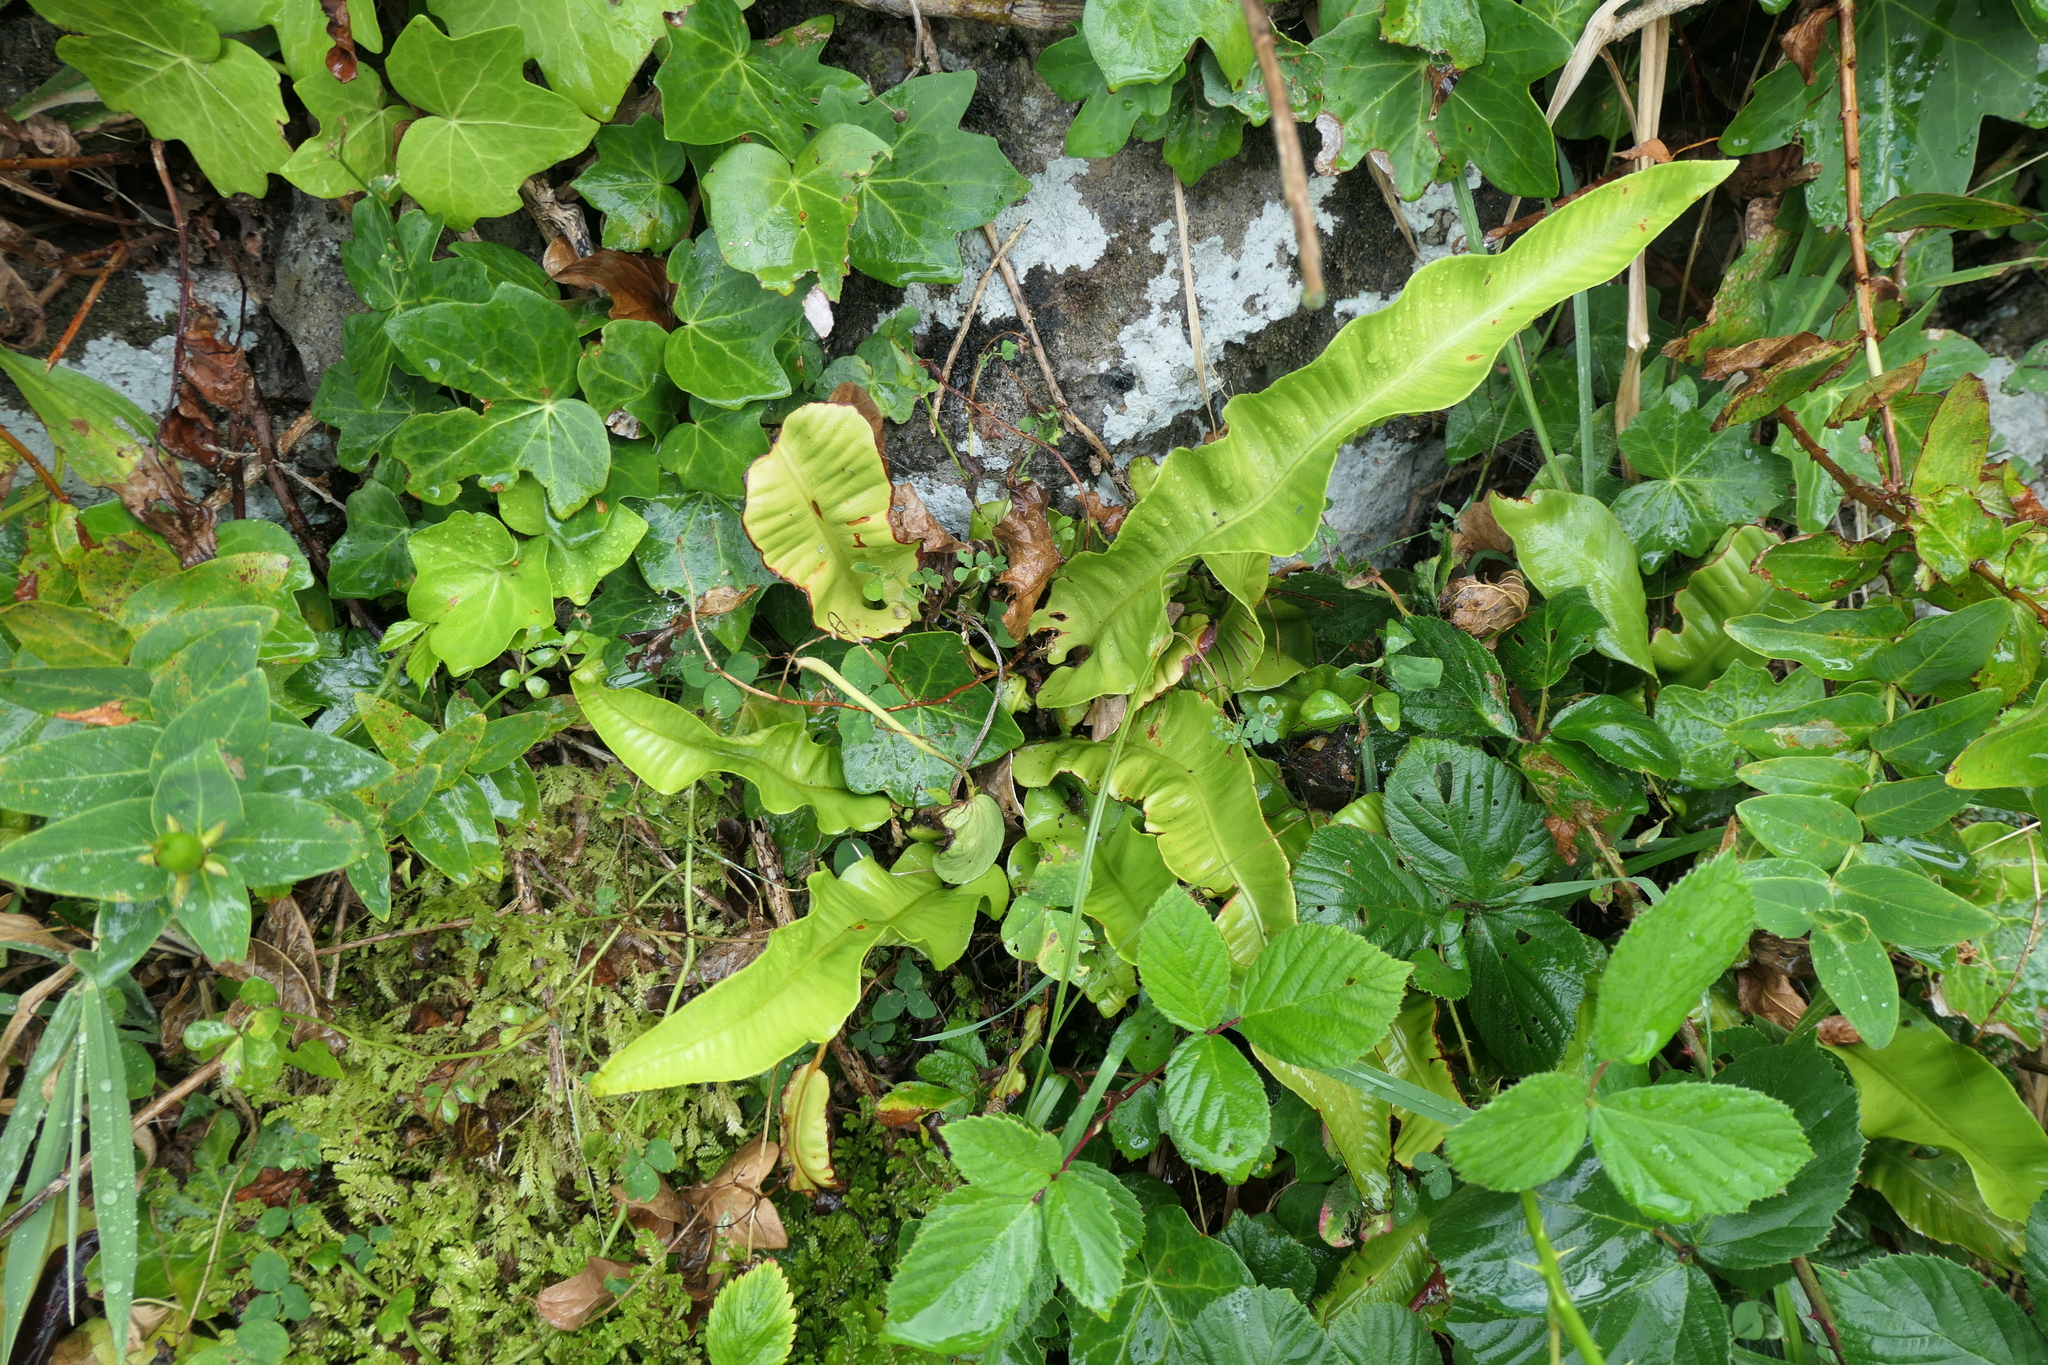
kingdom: Plantae
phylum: Tracheophyta
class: Polypodiopsida
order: Polypodiales
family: Aspleniaceae
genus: Asplenium
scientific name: Asplenium scolopendrium
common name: Hart's-tongue fern
